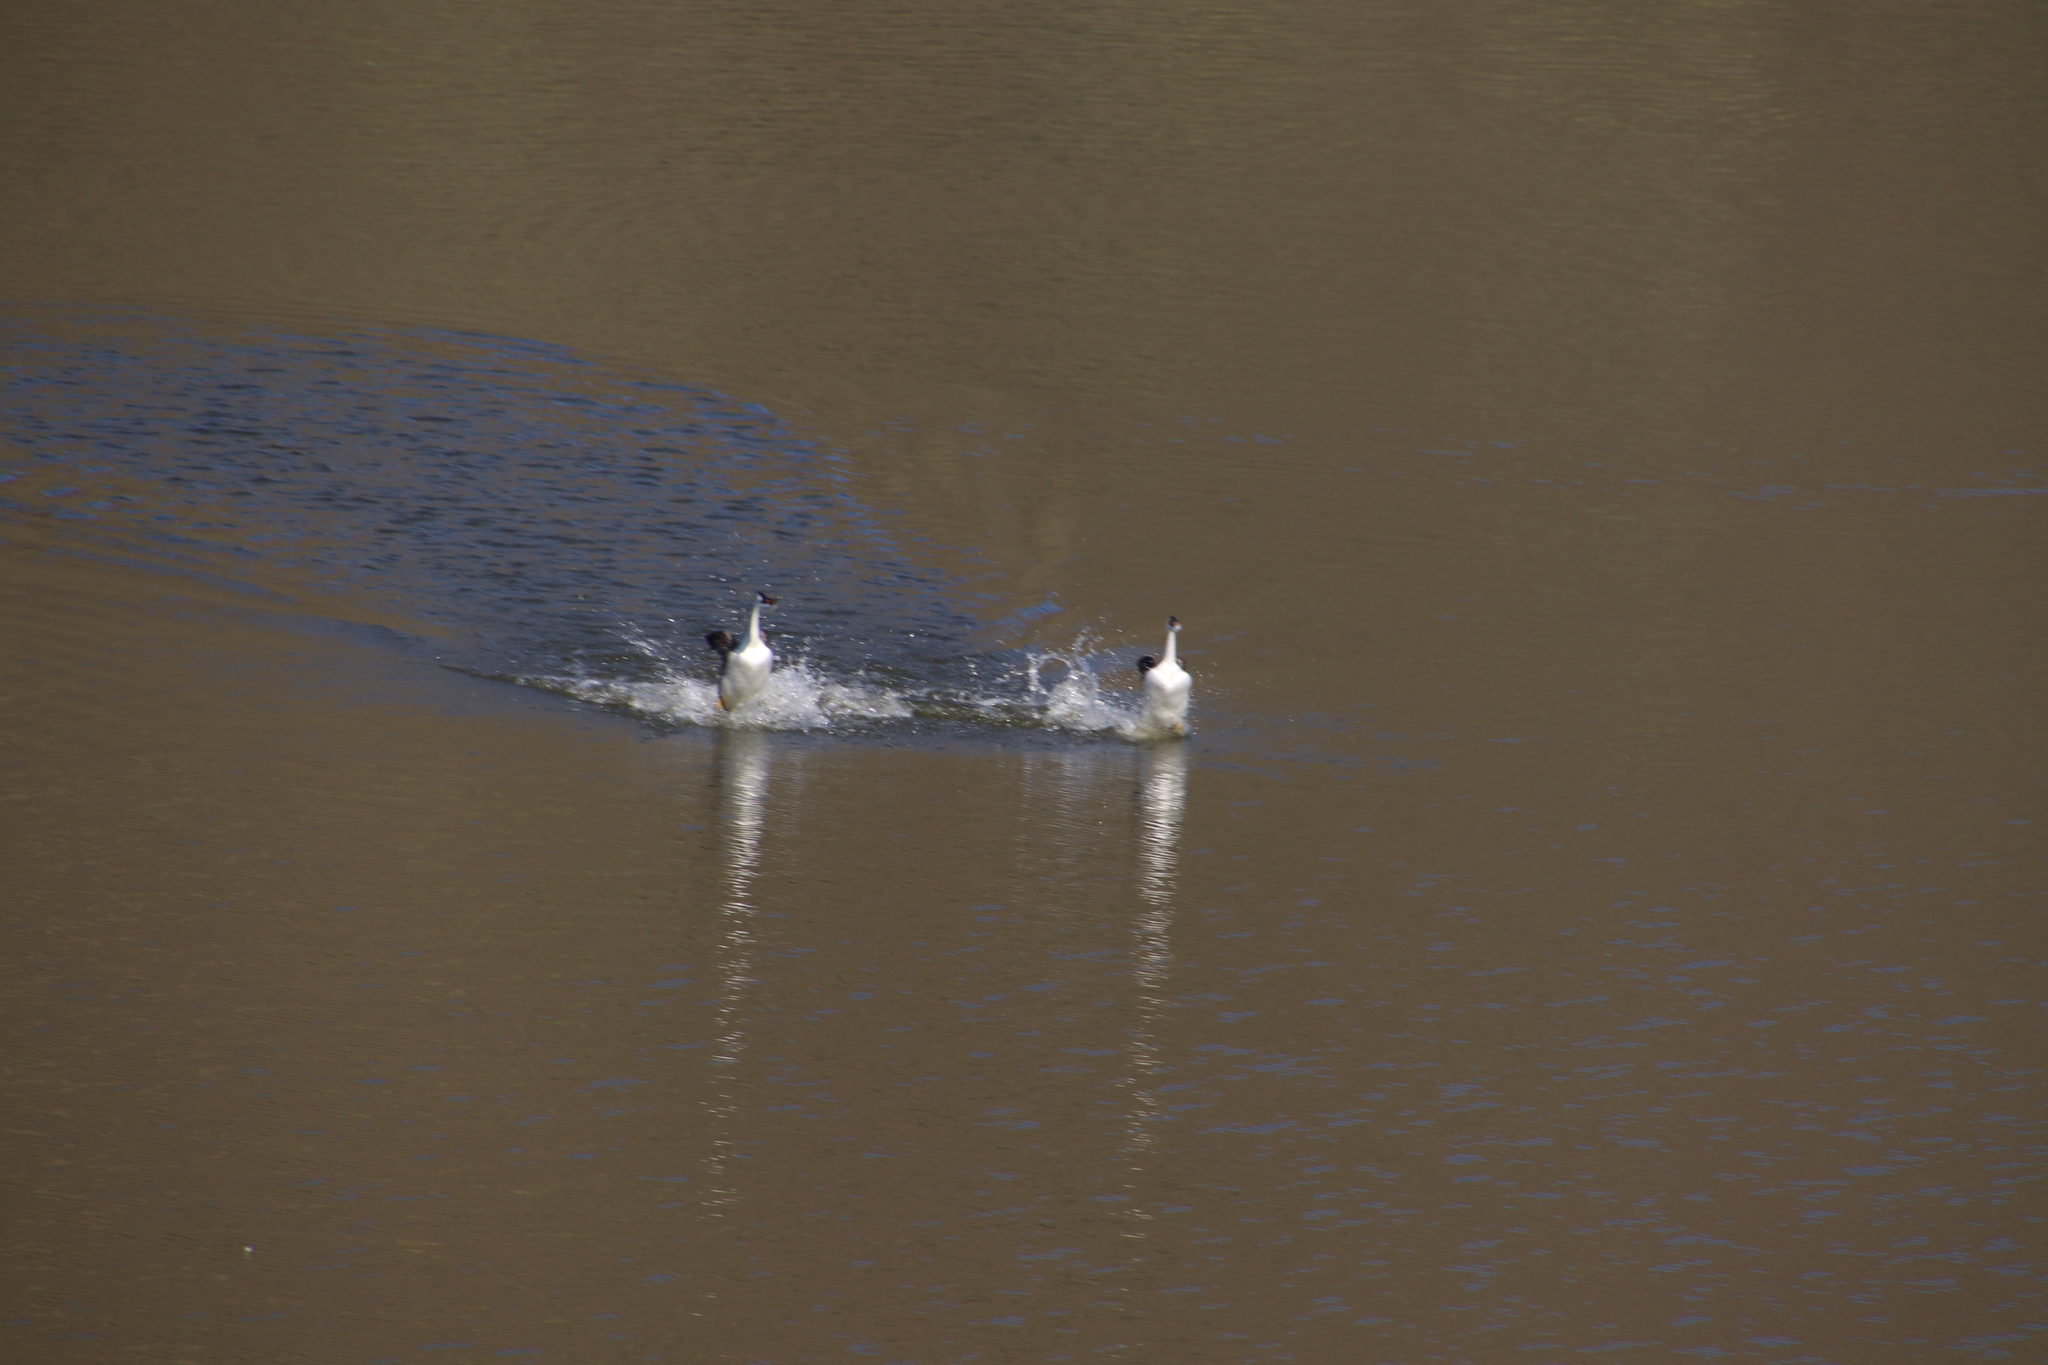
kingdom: Animalia
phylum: Chordata
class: Aves
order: Podicipediformes
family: Podicipedidae
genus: Aechmophorus
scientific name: Aechmophorus occidentalis
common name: Western grebe
